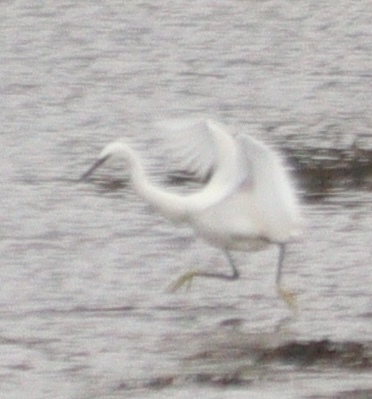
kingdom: Animalia
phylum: Chordata
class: Aves
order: Pelecaniformes
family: Ardeidae
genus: Egretta
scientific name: Egretta garzetta
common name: Little egret
